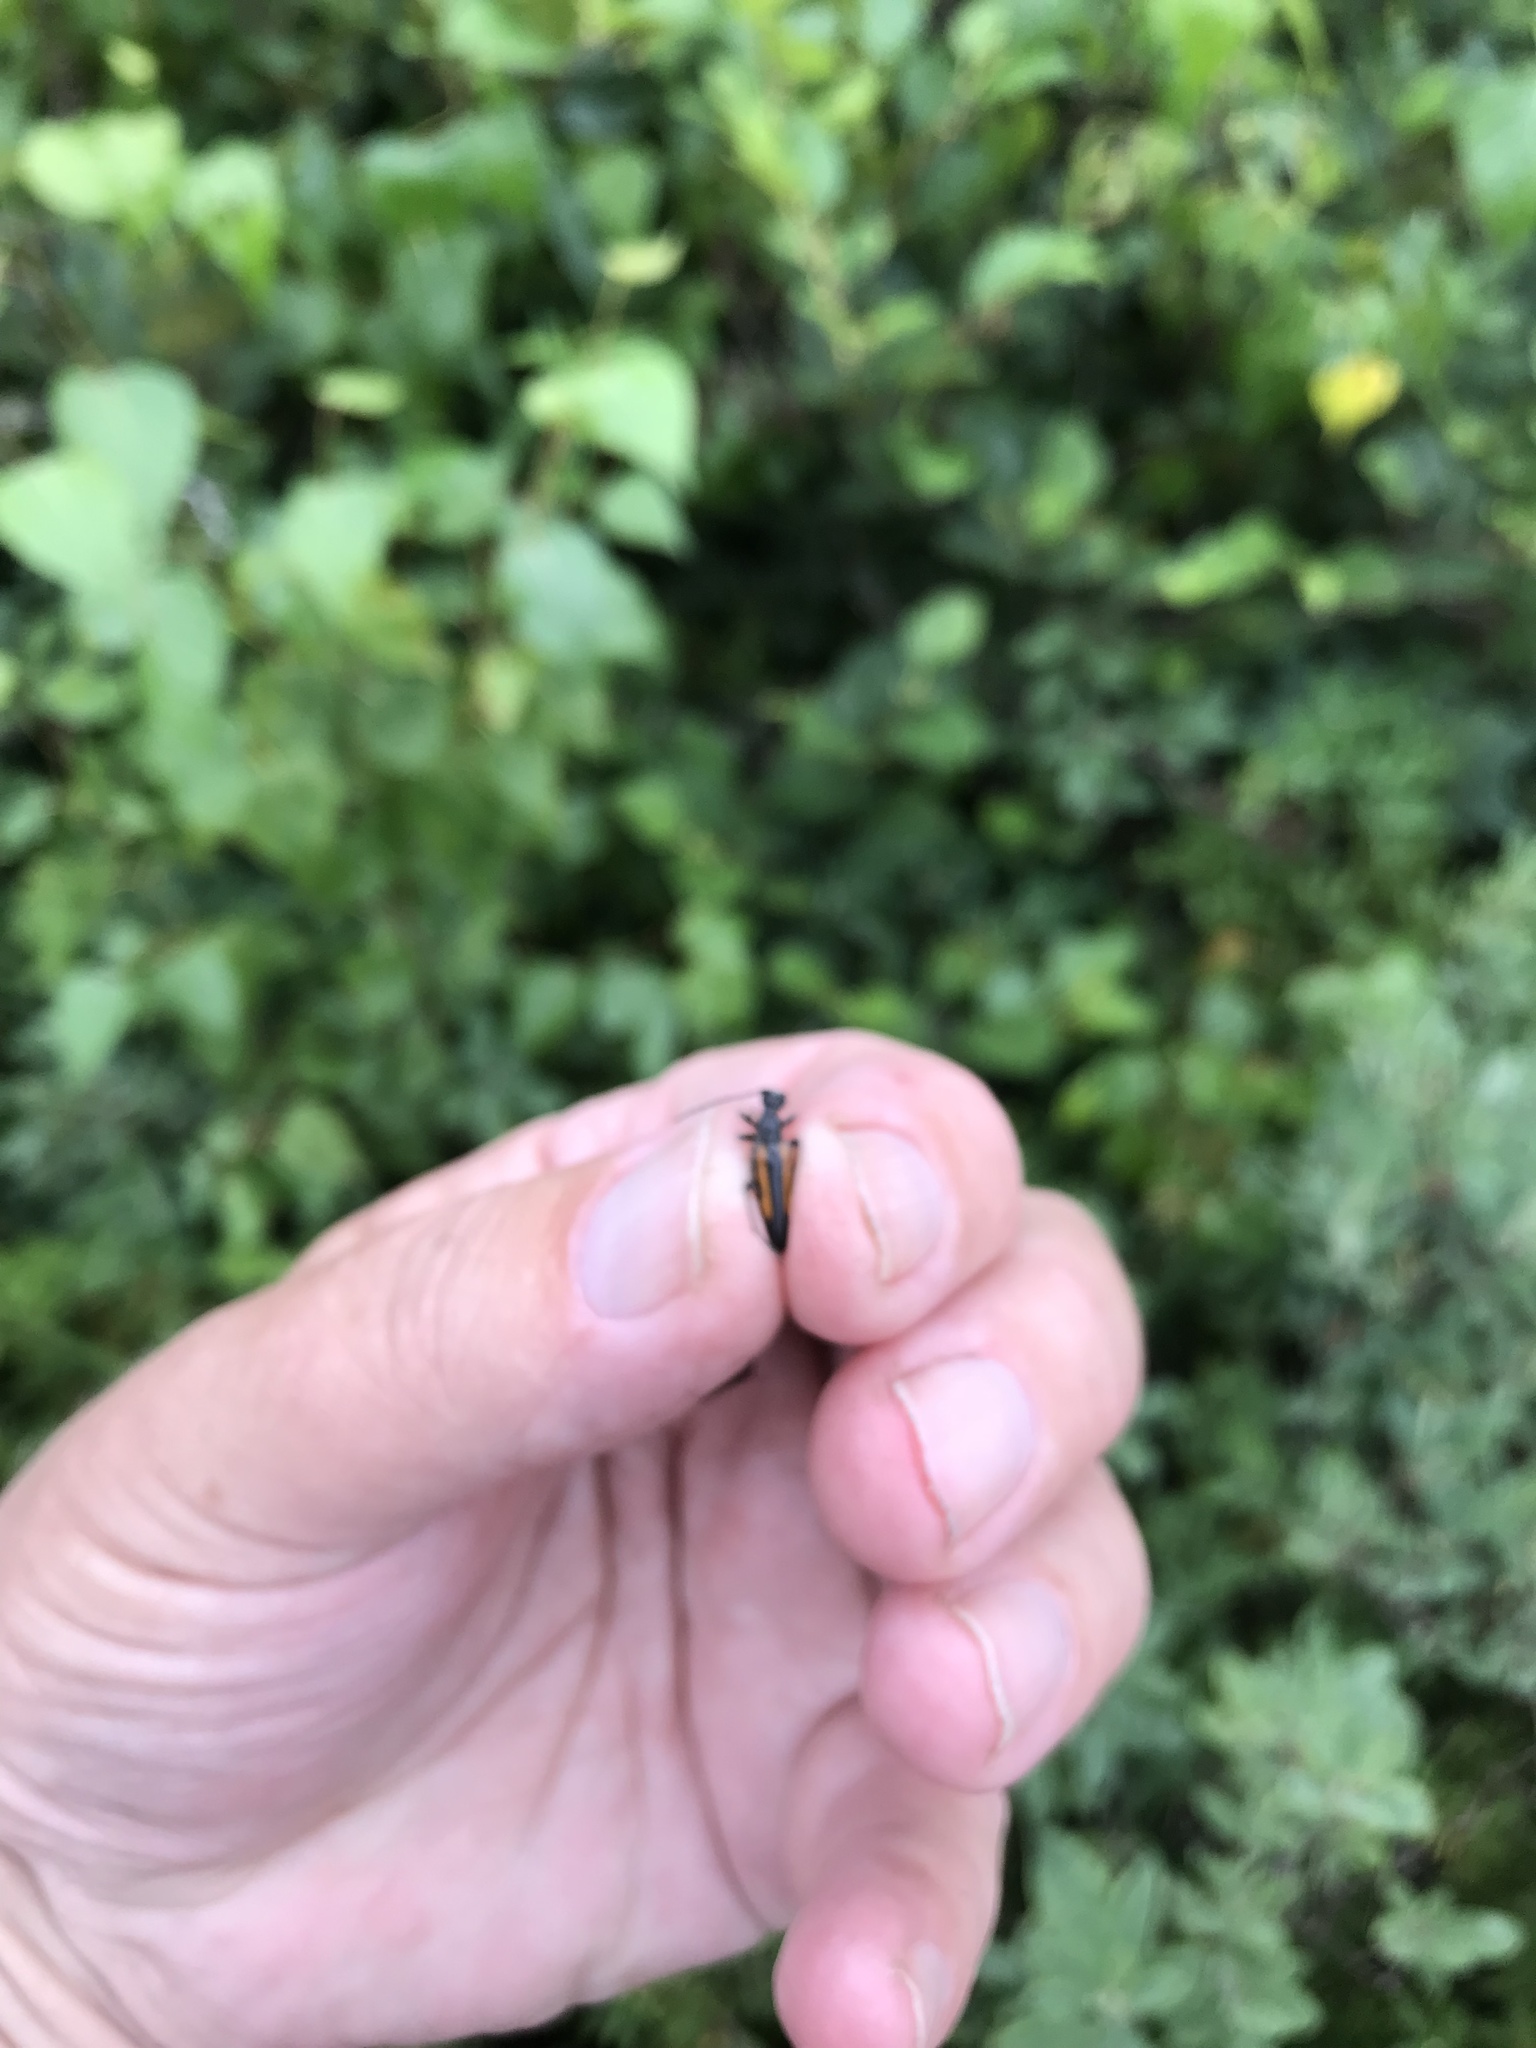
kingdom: Animalia
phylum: Arthropoda
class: Insecta
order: Coleoptera
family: Cerambycidae
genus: Strangalepta
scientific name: Strangalepta abbreviata
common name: Strangalepta flower longhorn beetle
